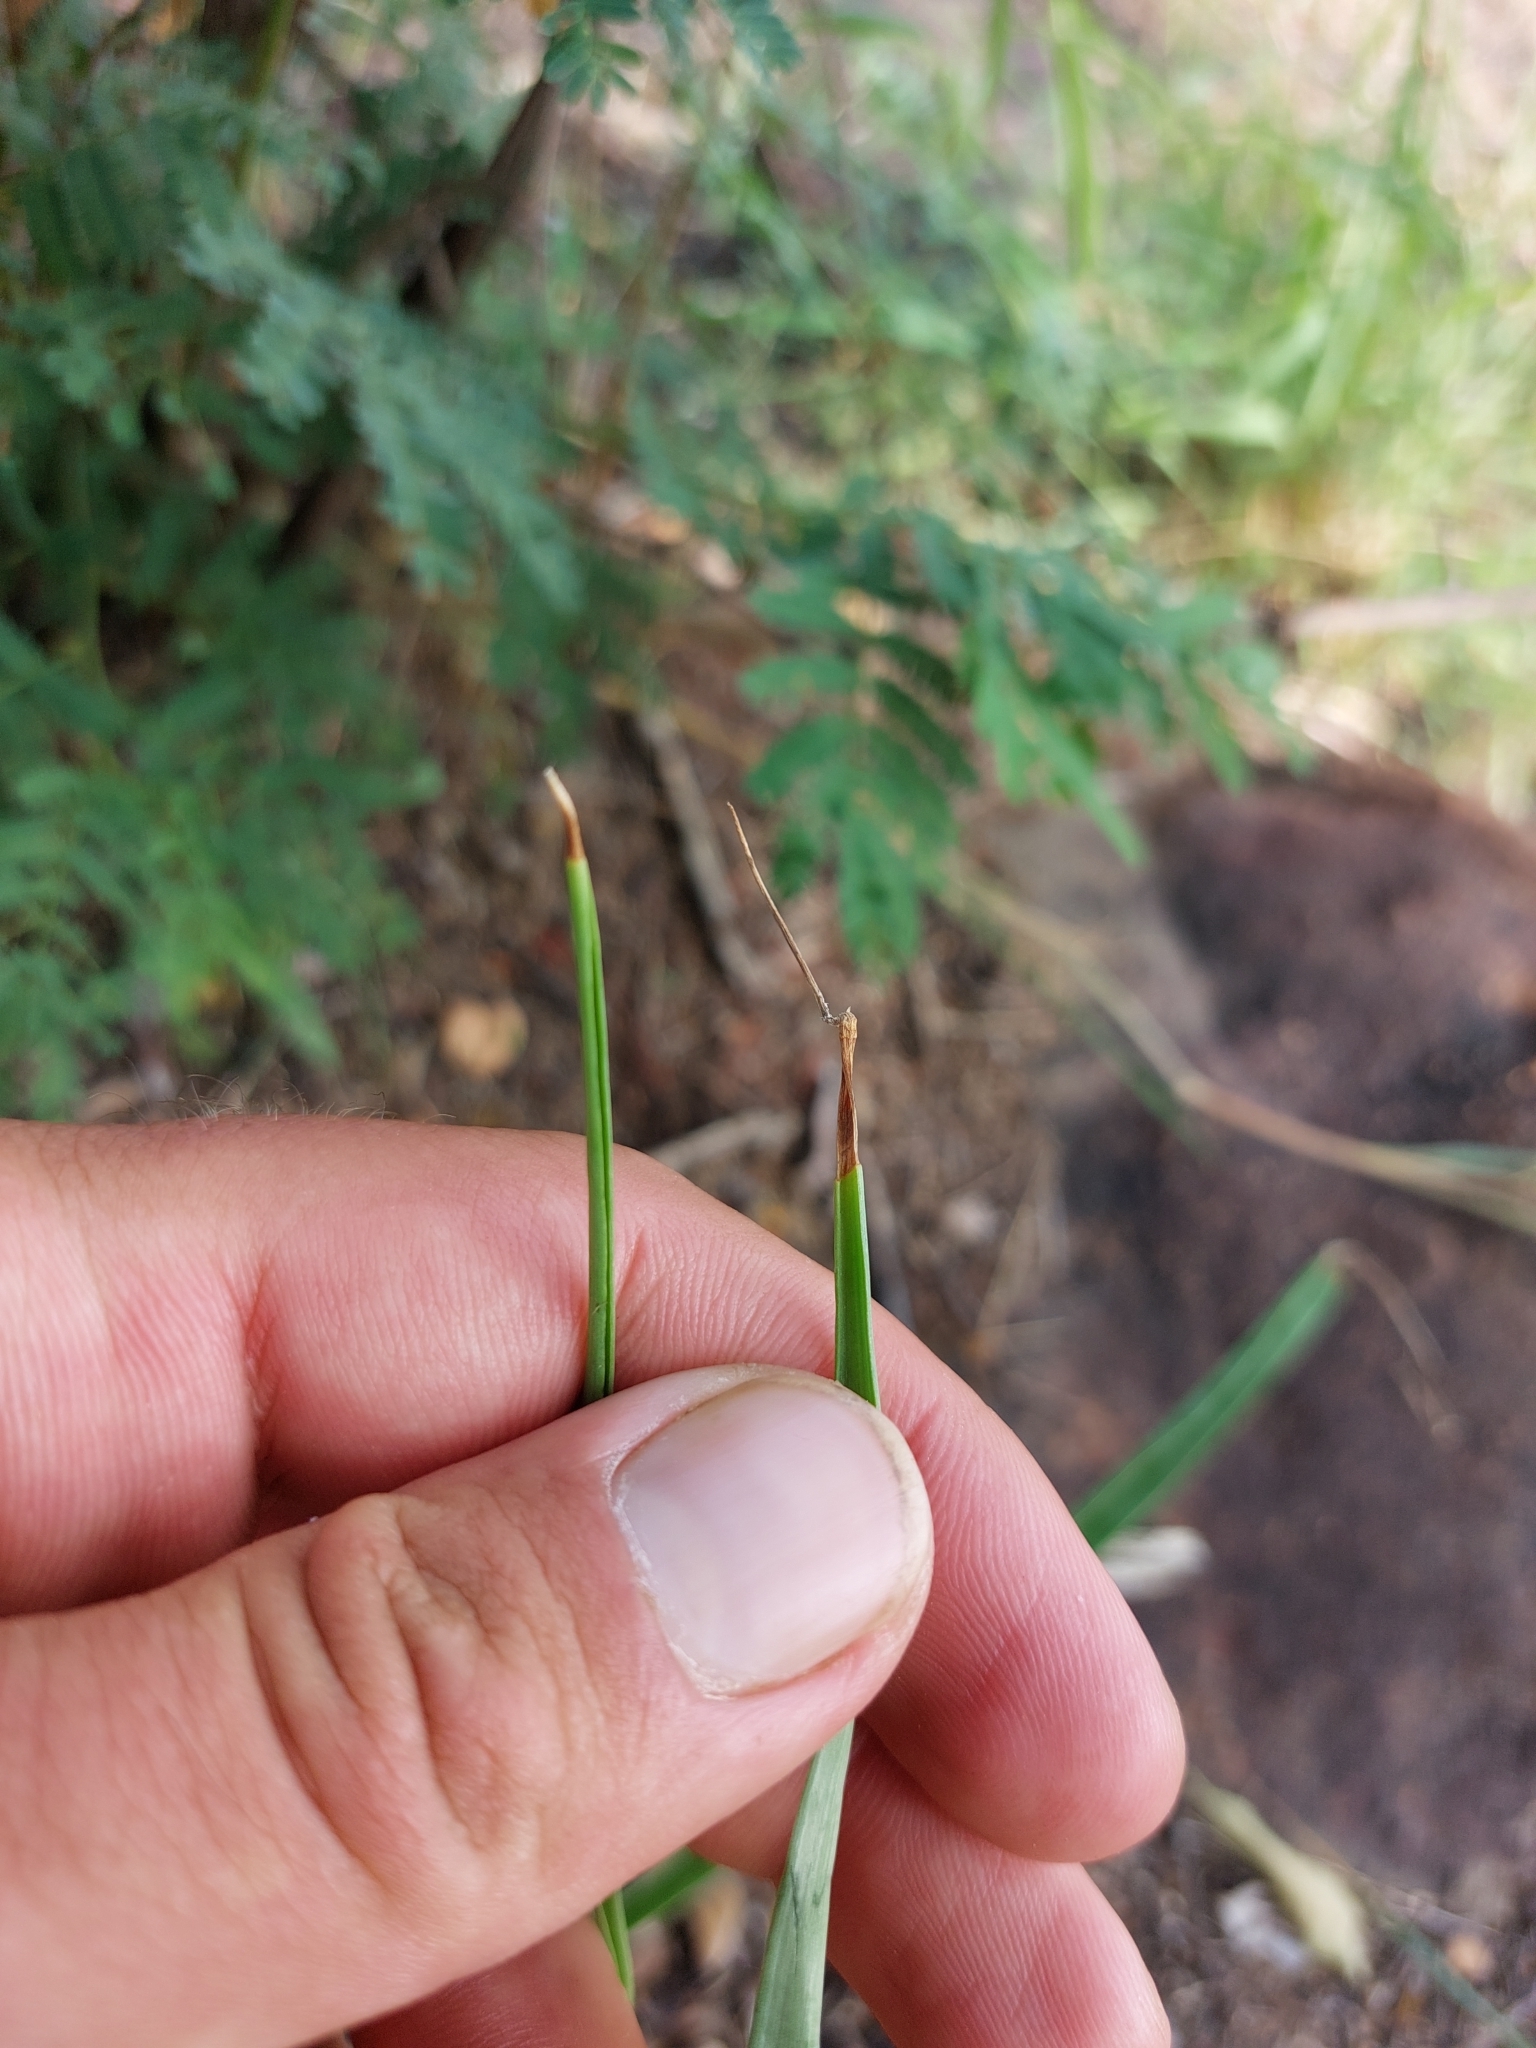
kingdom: Plantae
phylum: Tracheophyta
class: Liliopsida
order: Asparagales
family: Asparagaceae
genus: Ledebouria
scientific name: Ledebouria marginata
